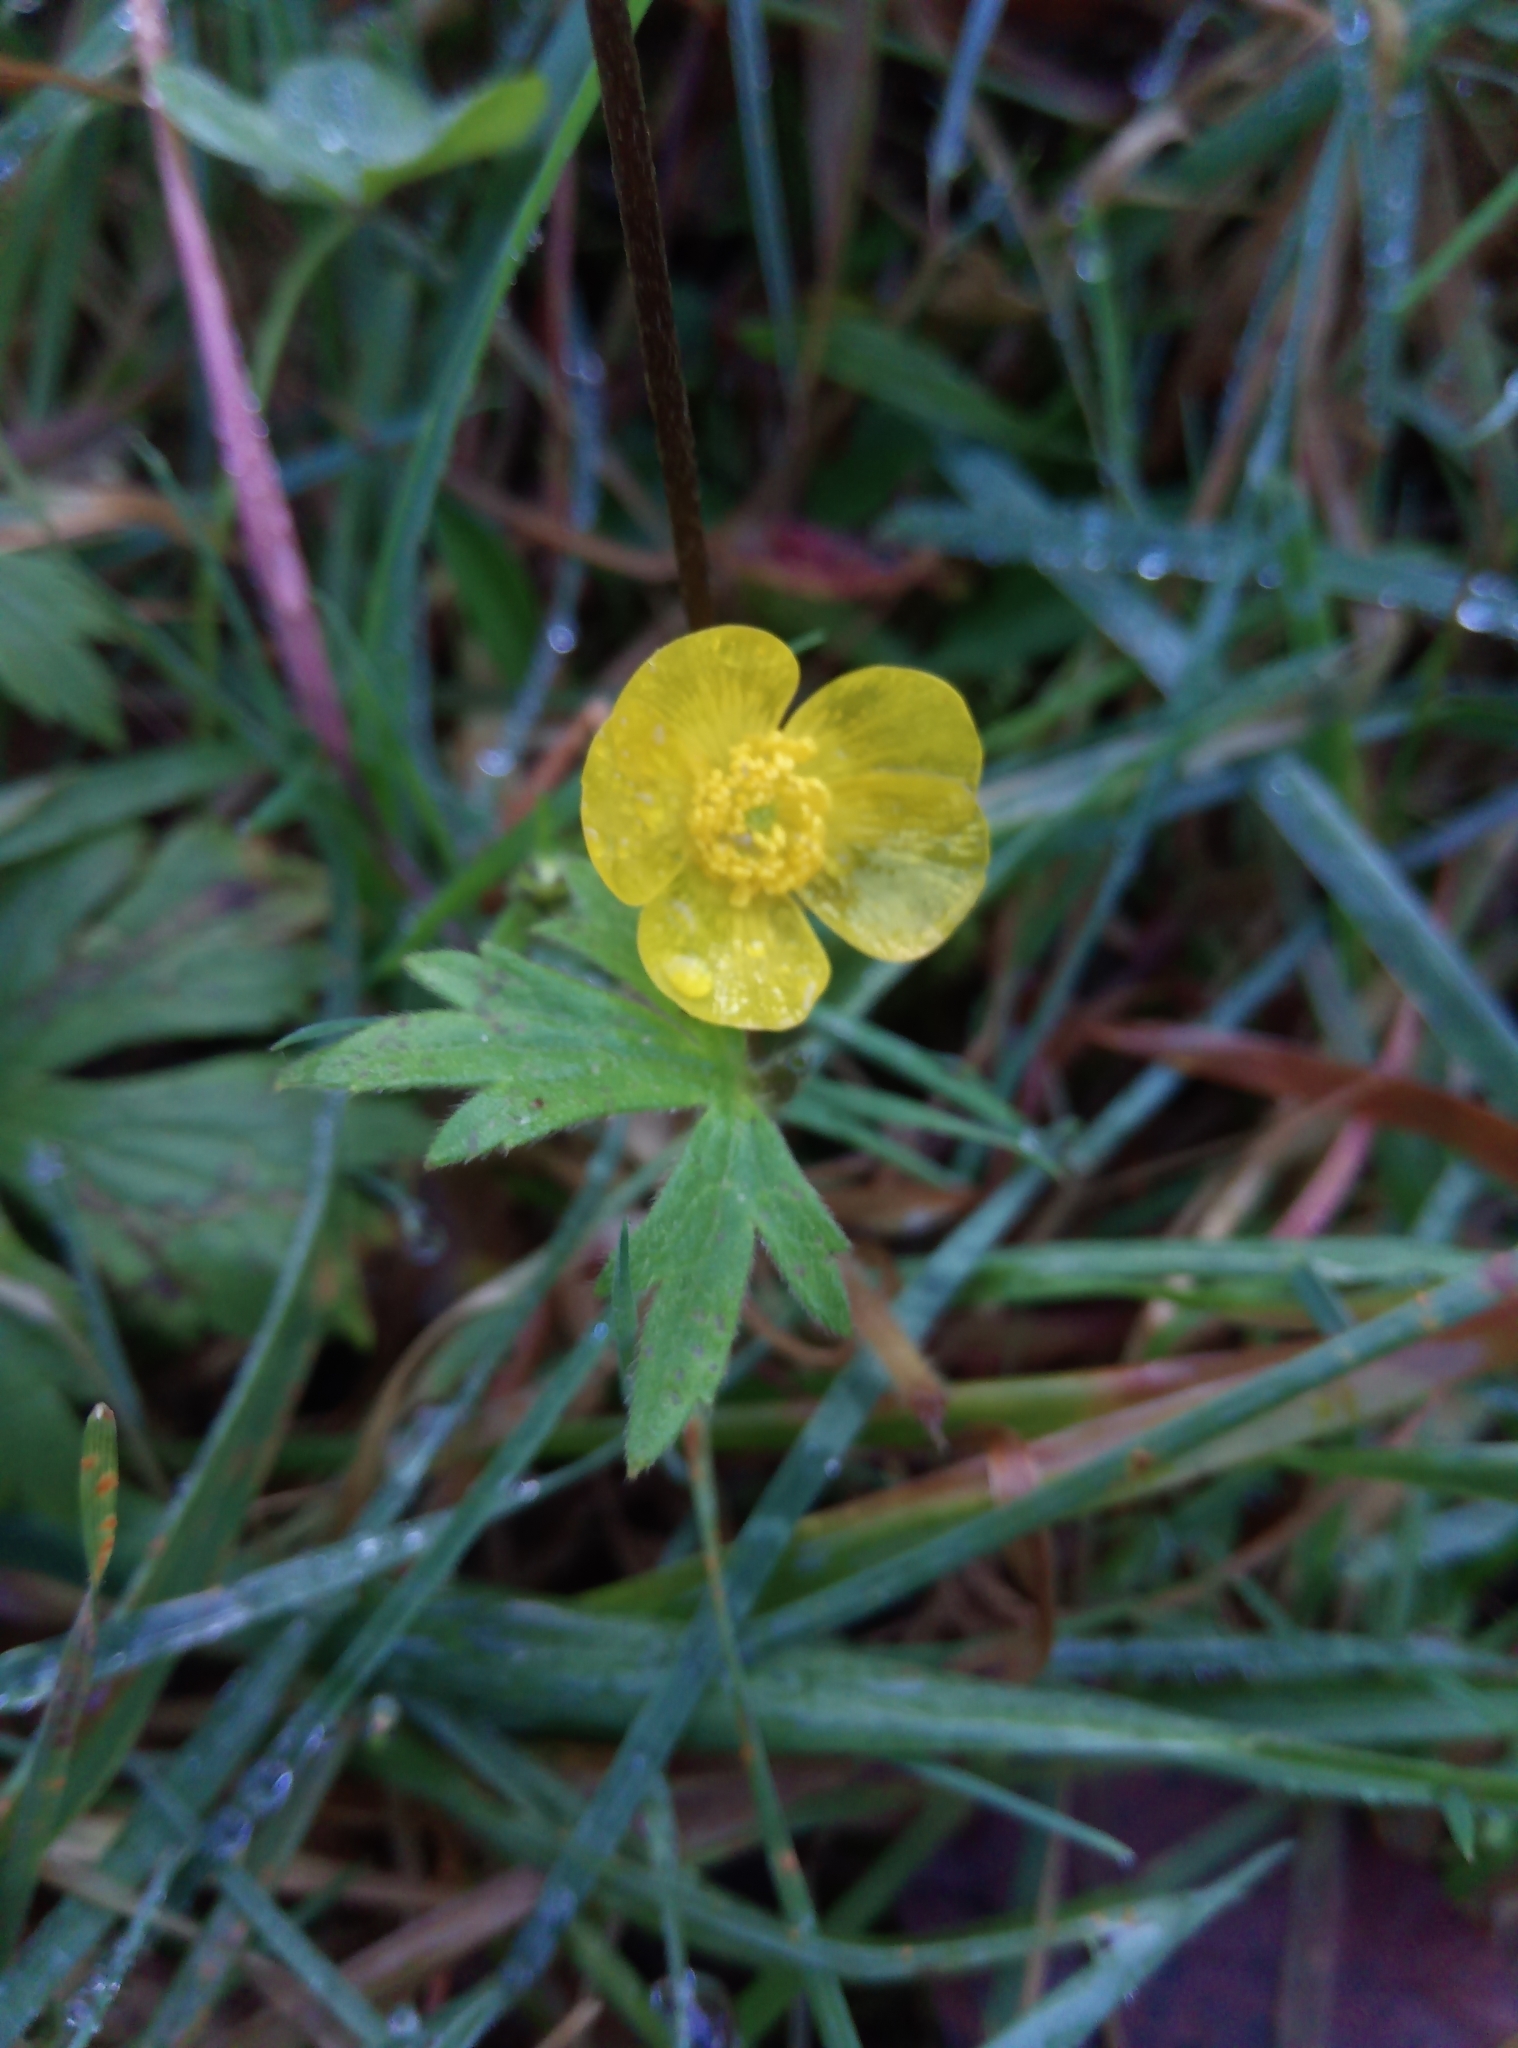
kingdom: Plantae
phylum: Tracheophyta
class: Magnoliopsida
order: Ranunculales
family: Ranunculaceae
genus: Ranunculus
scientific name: Ranunculus acris
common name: Meadow buttercup
